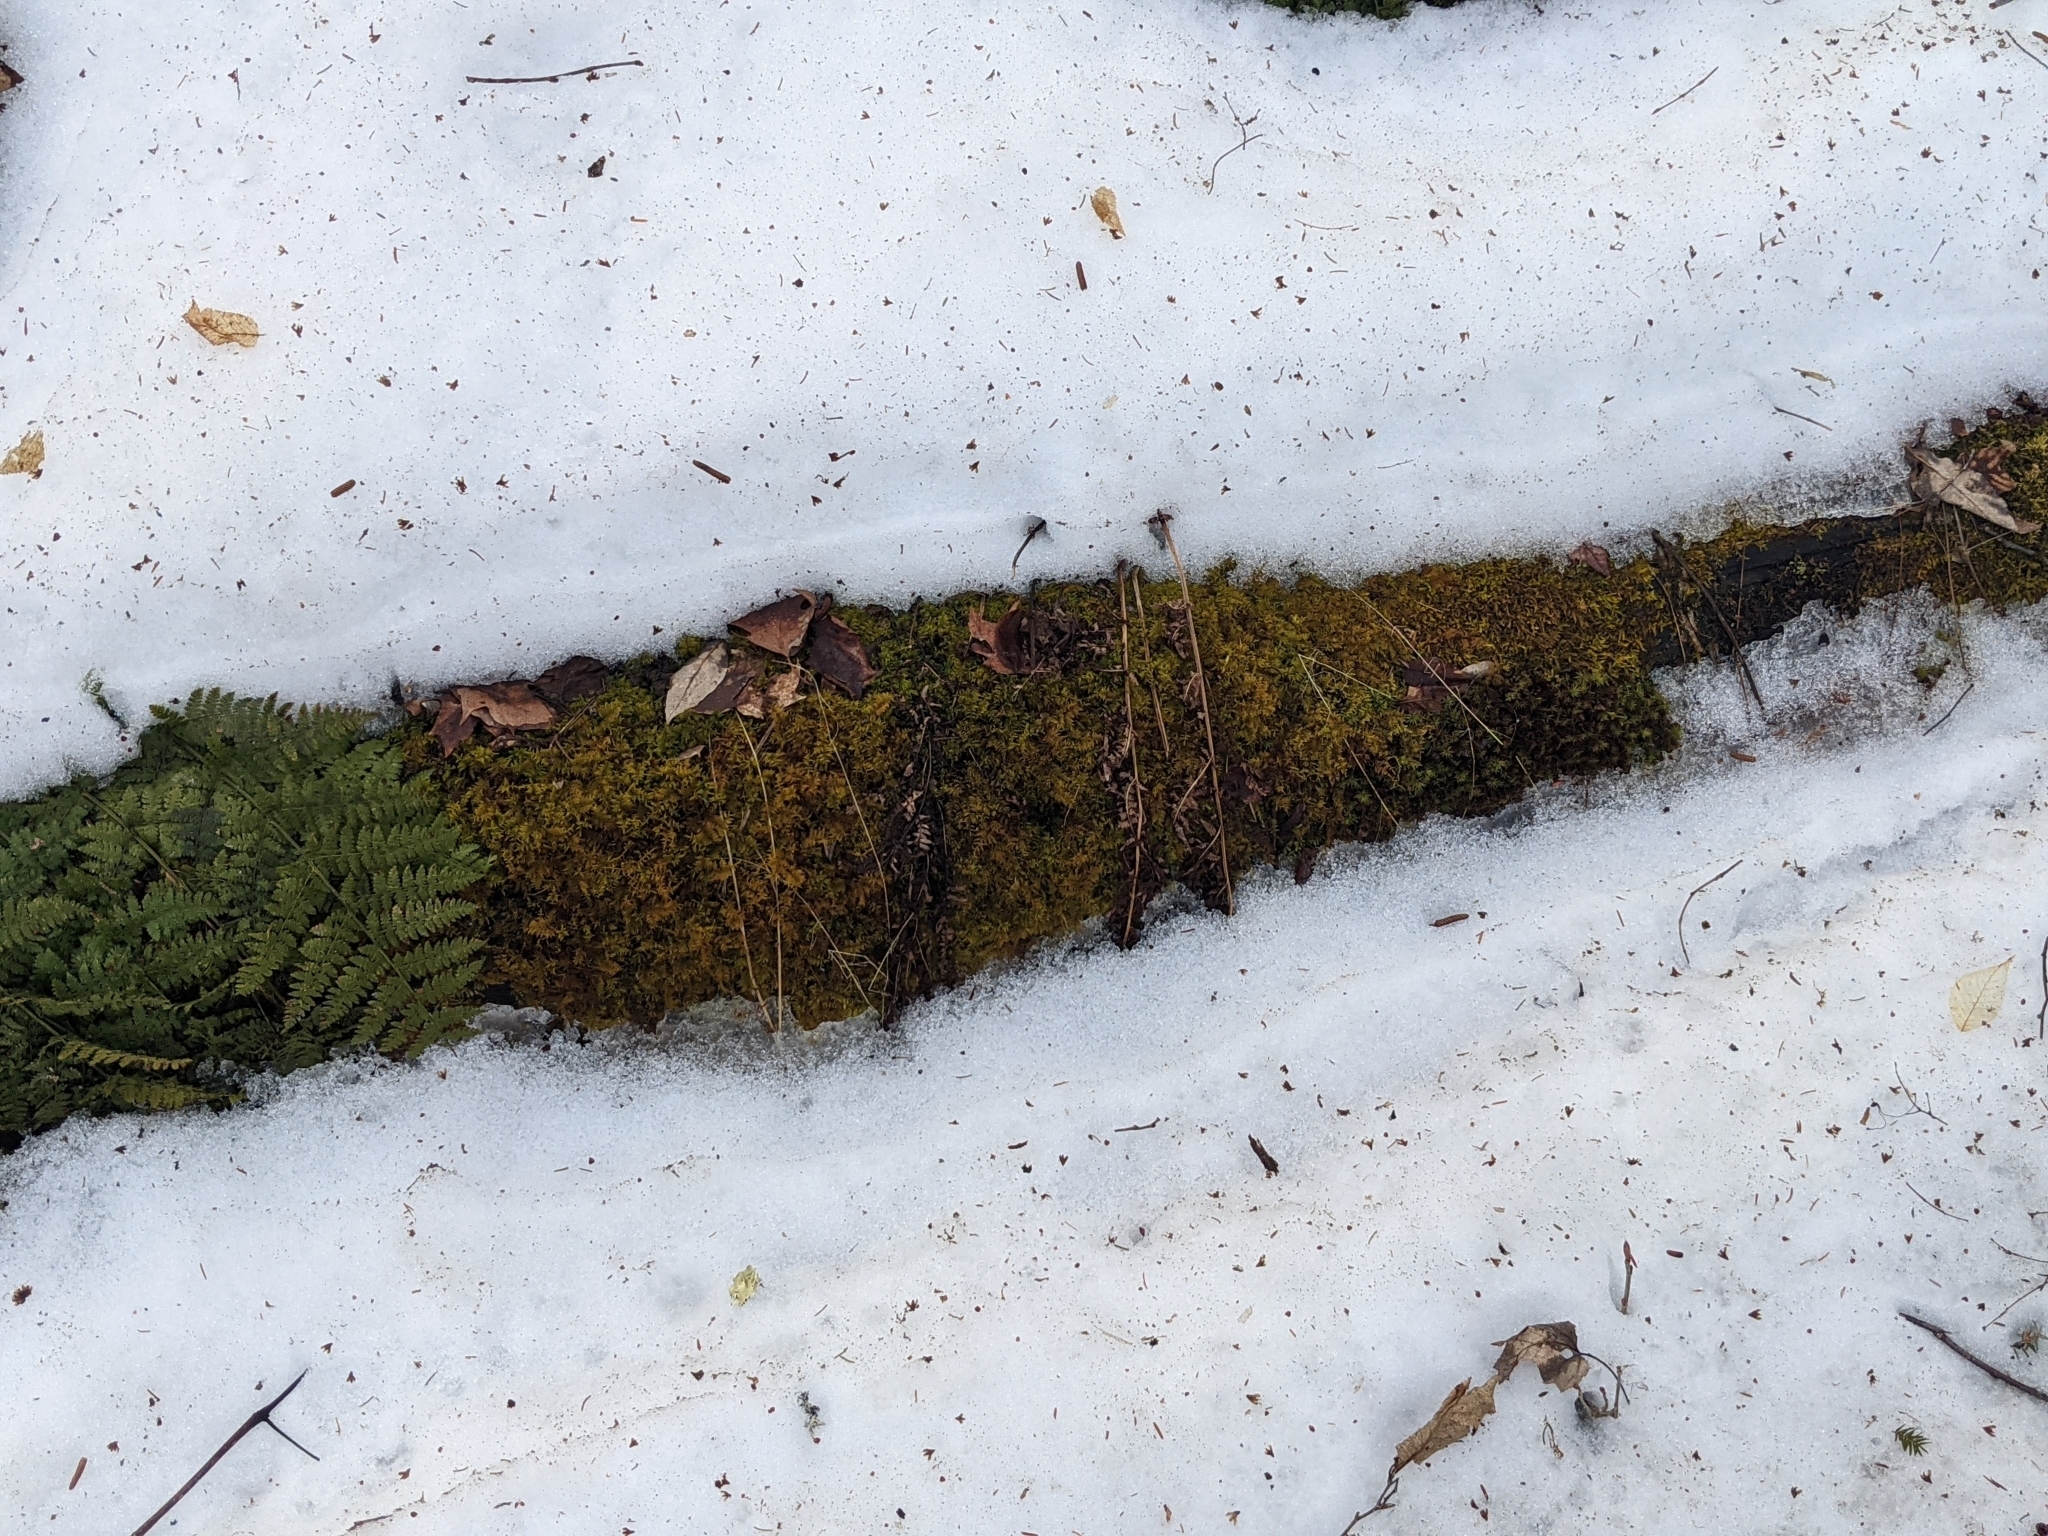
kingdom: Plantae
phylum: Bryophyta
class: Bryopsida
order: Hypnales
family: Thuidiaceae
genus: Thuidium
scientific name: Thuidium delicatulum
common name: Delicate fern moss
